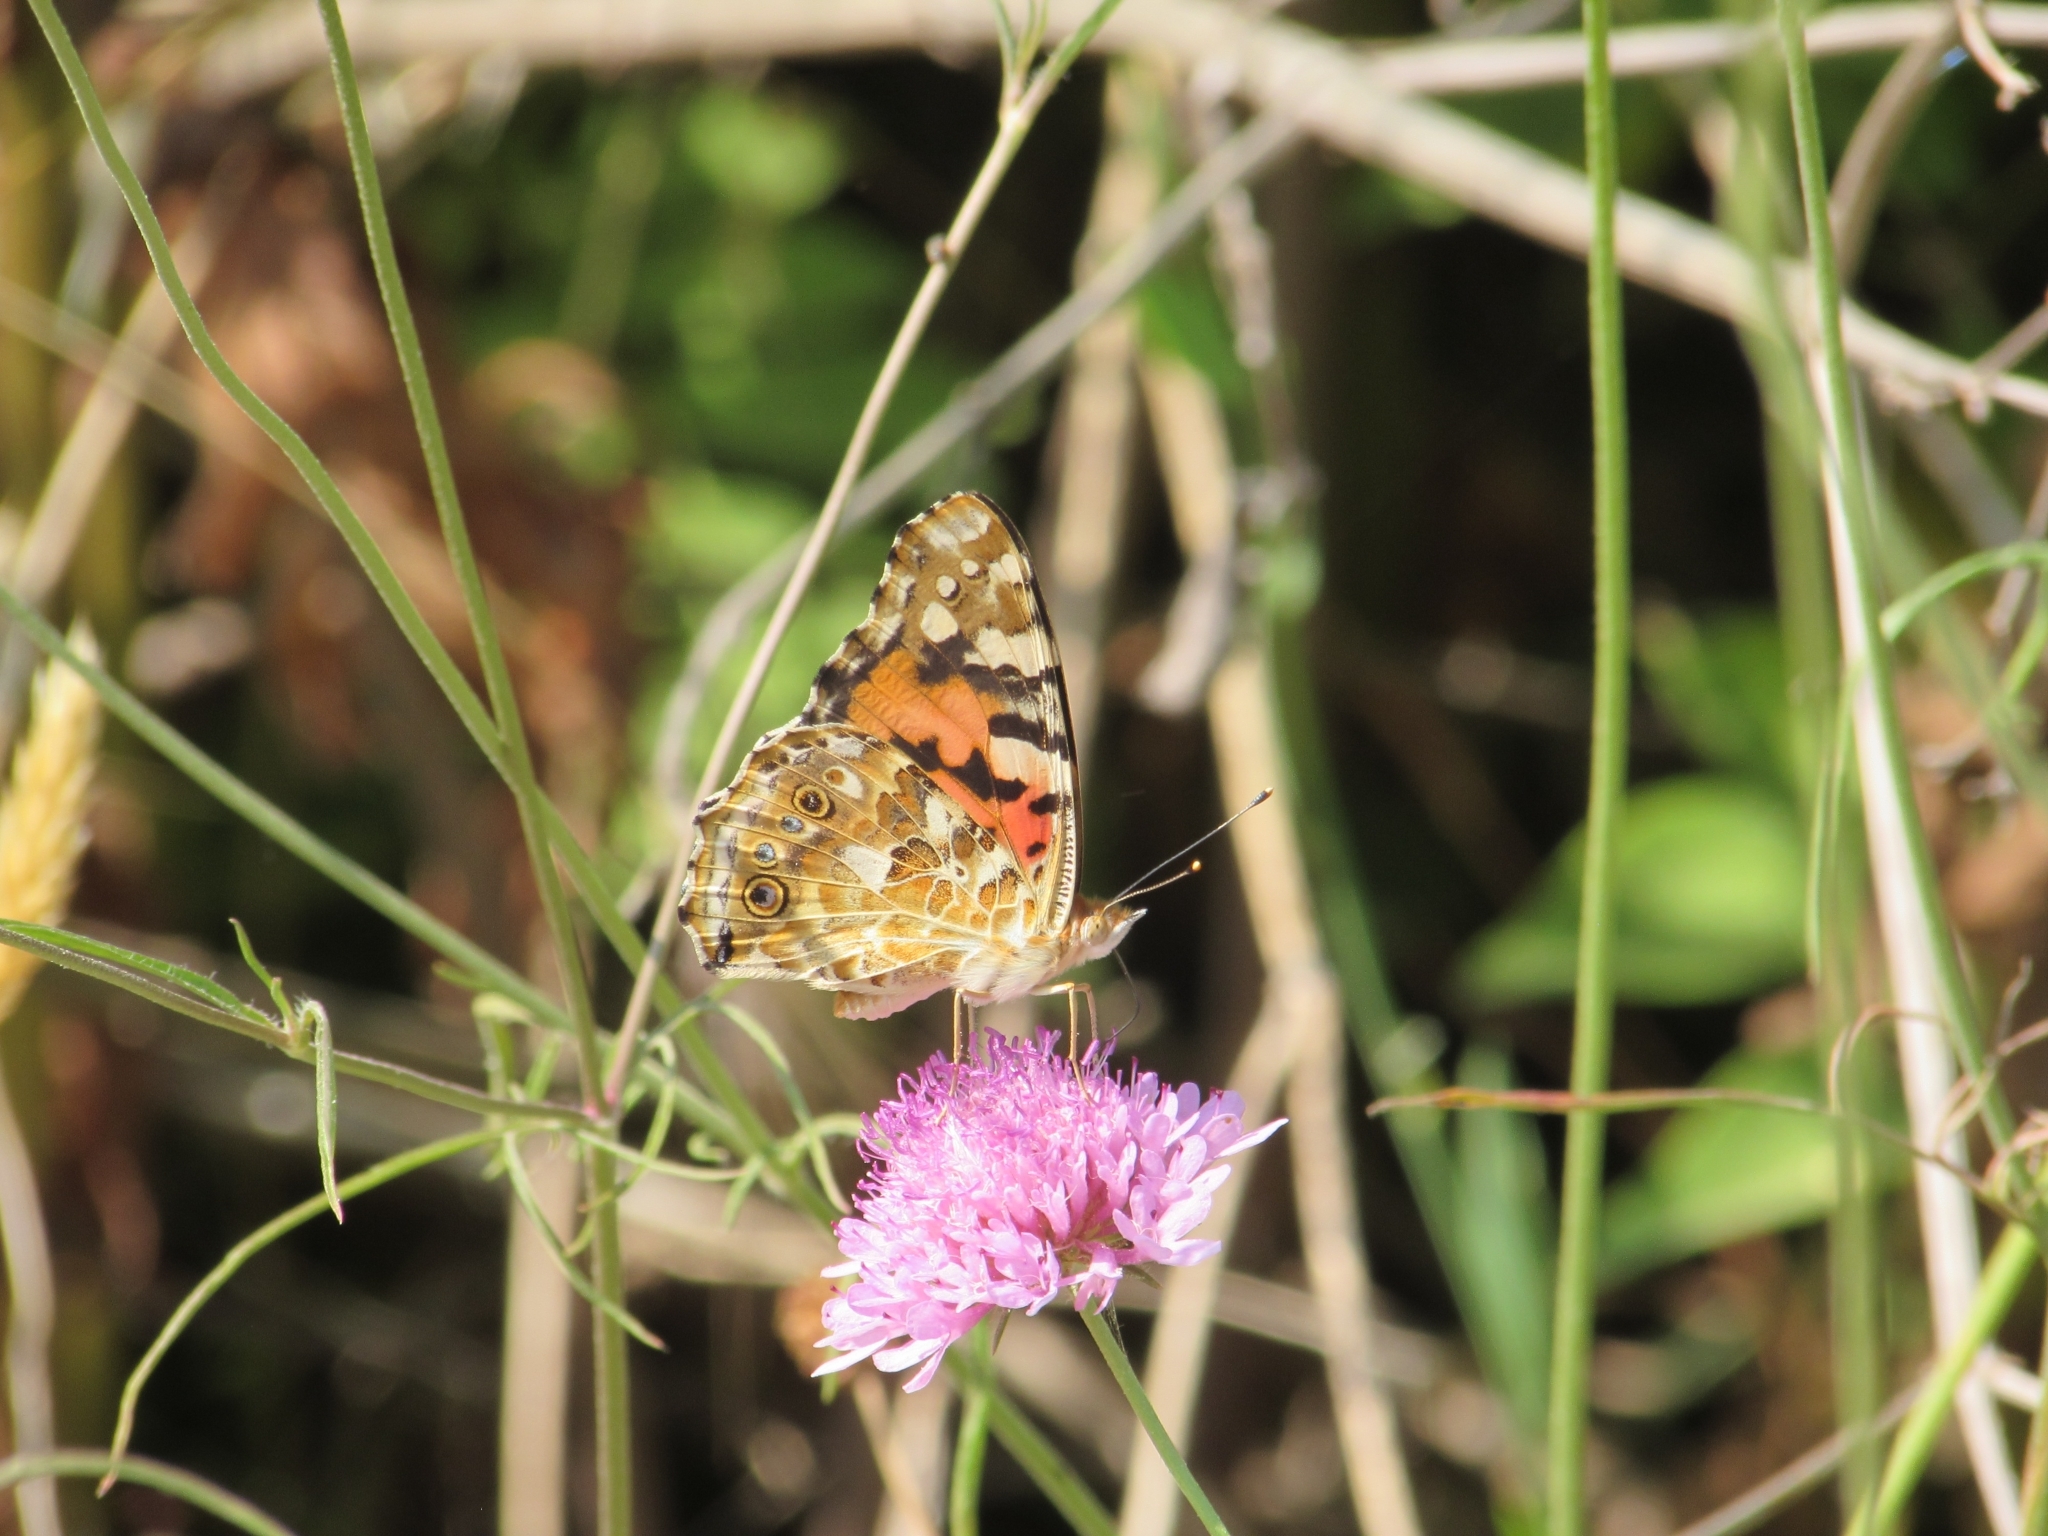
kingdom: Animalia
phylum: Arthropoda
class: Insecta
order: Lepidoptera
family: Nymphalidae
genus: Vanessa
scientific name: Vanessa cardui
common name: Painted lady
